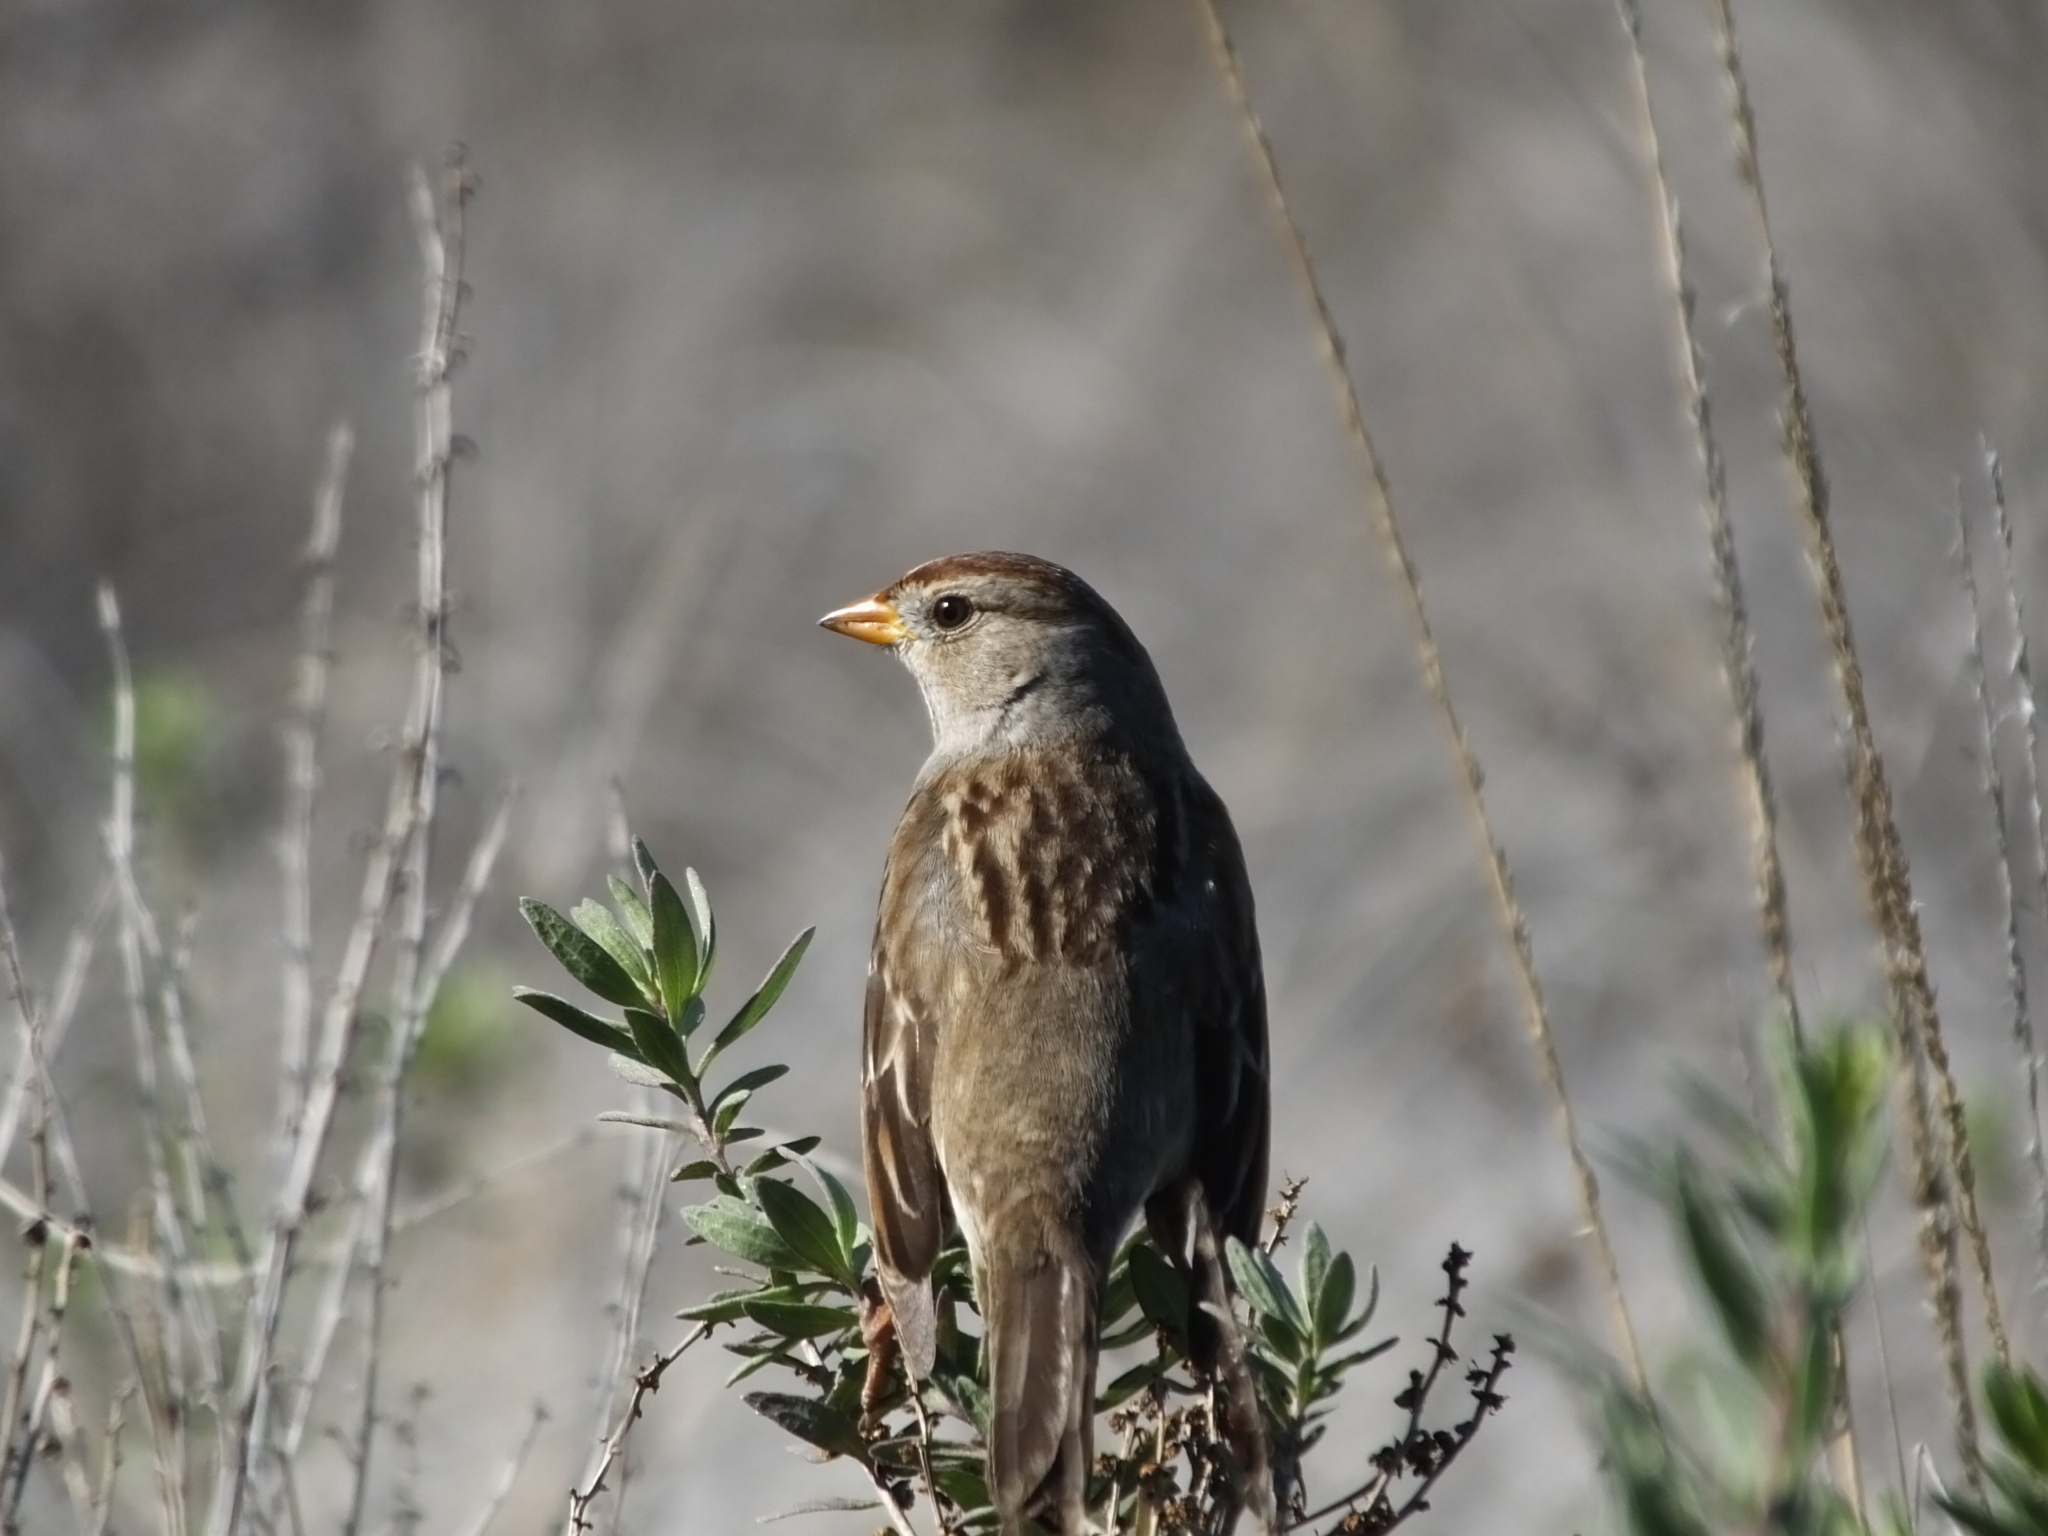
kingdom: Animalia
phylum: Chordata
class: Aves
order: Passeriformes
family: Passerellidae
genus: Zonotrichia
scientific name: Zonotrichia leucophrys
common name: White-crowned sparrow
